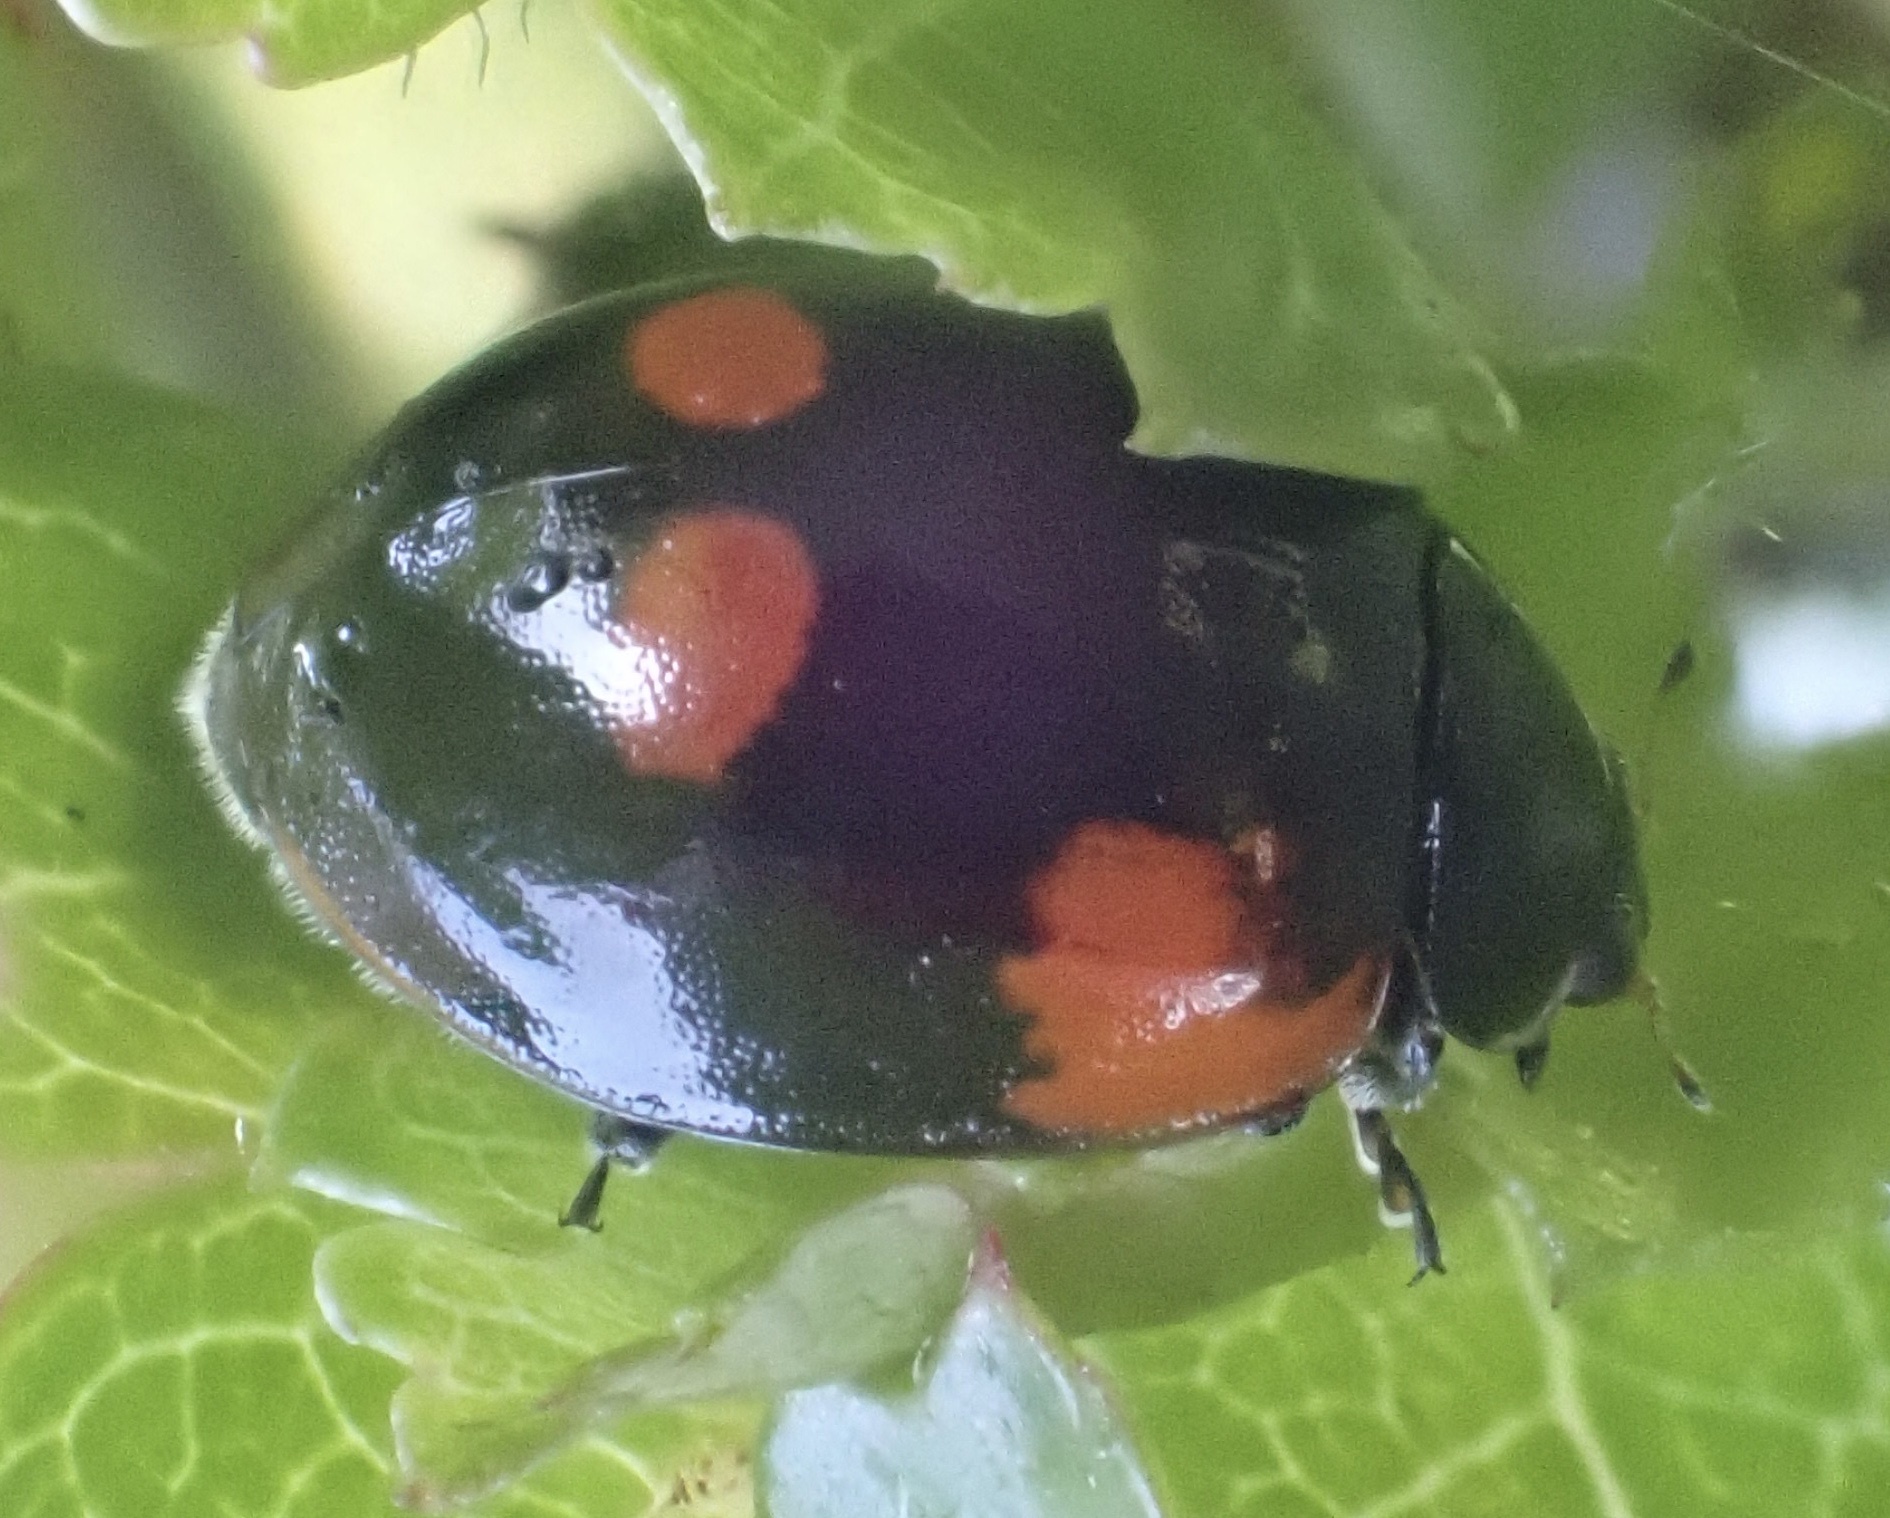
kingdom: Animalia
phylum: Arthropoda
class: Insecta
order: Coleoptera
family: Coccinellidae
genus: Adalia
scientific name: Adalia bipunctata
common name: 2-spot ladybird
